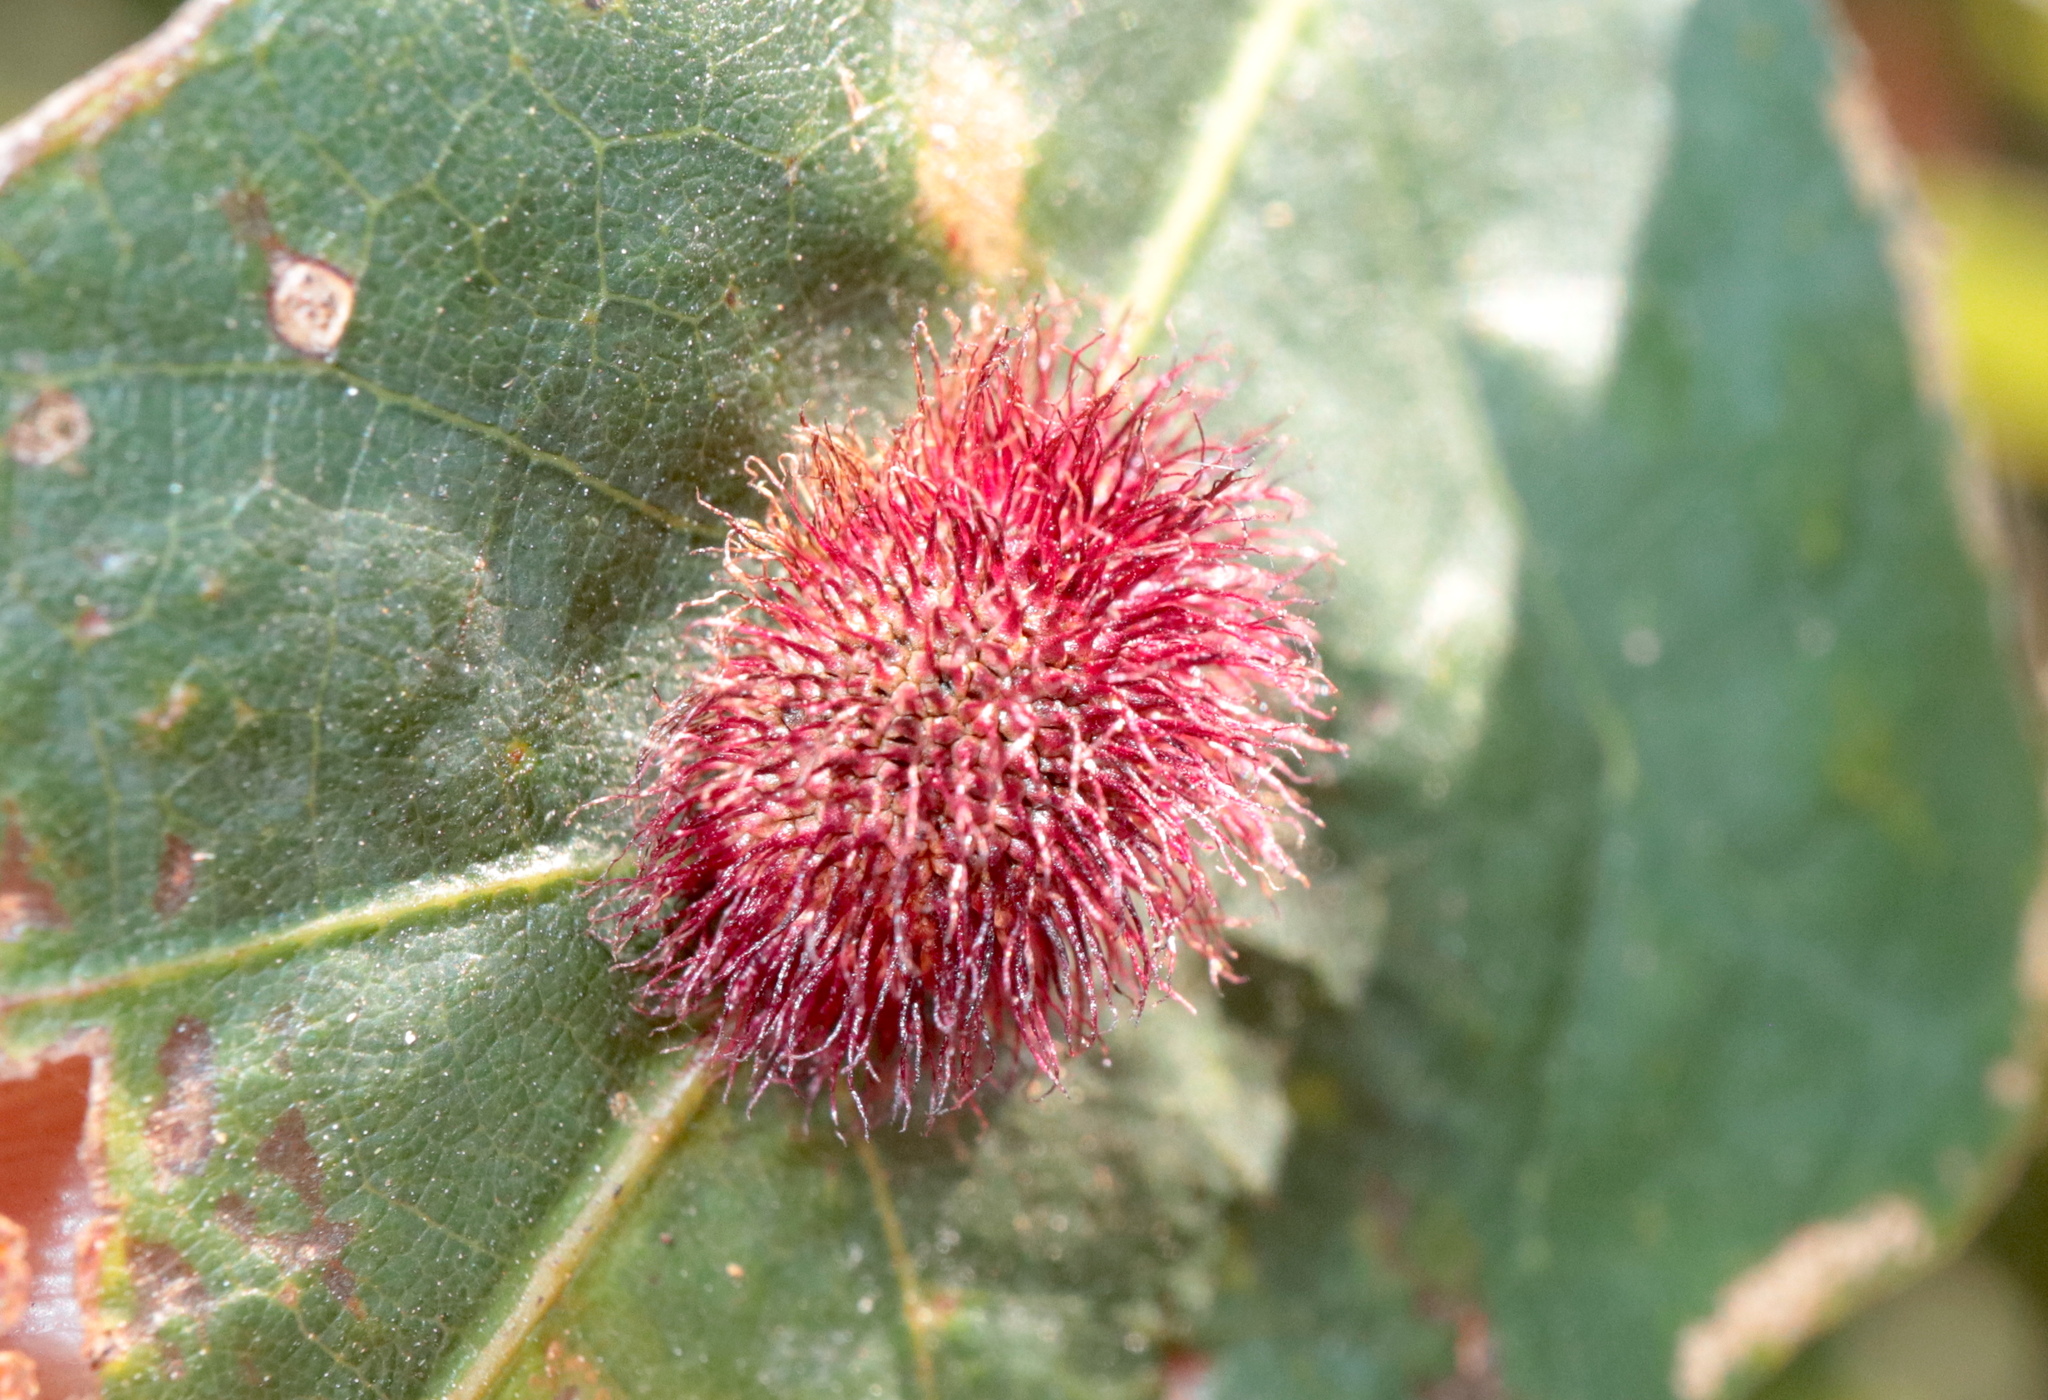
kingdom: Animalia
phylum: Arthropoda
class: Insecta
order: Hymenoptera
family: Cynipidae
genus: Acraspis
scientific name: Acraspis erinacei
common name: Hedgehog gall wasp
